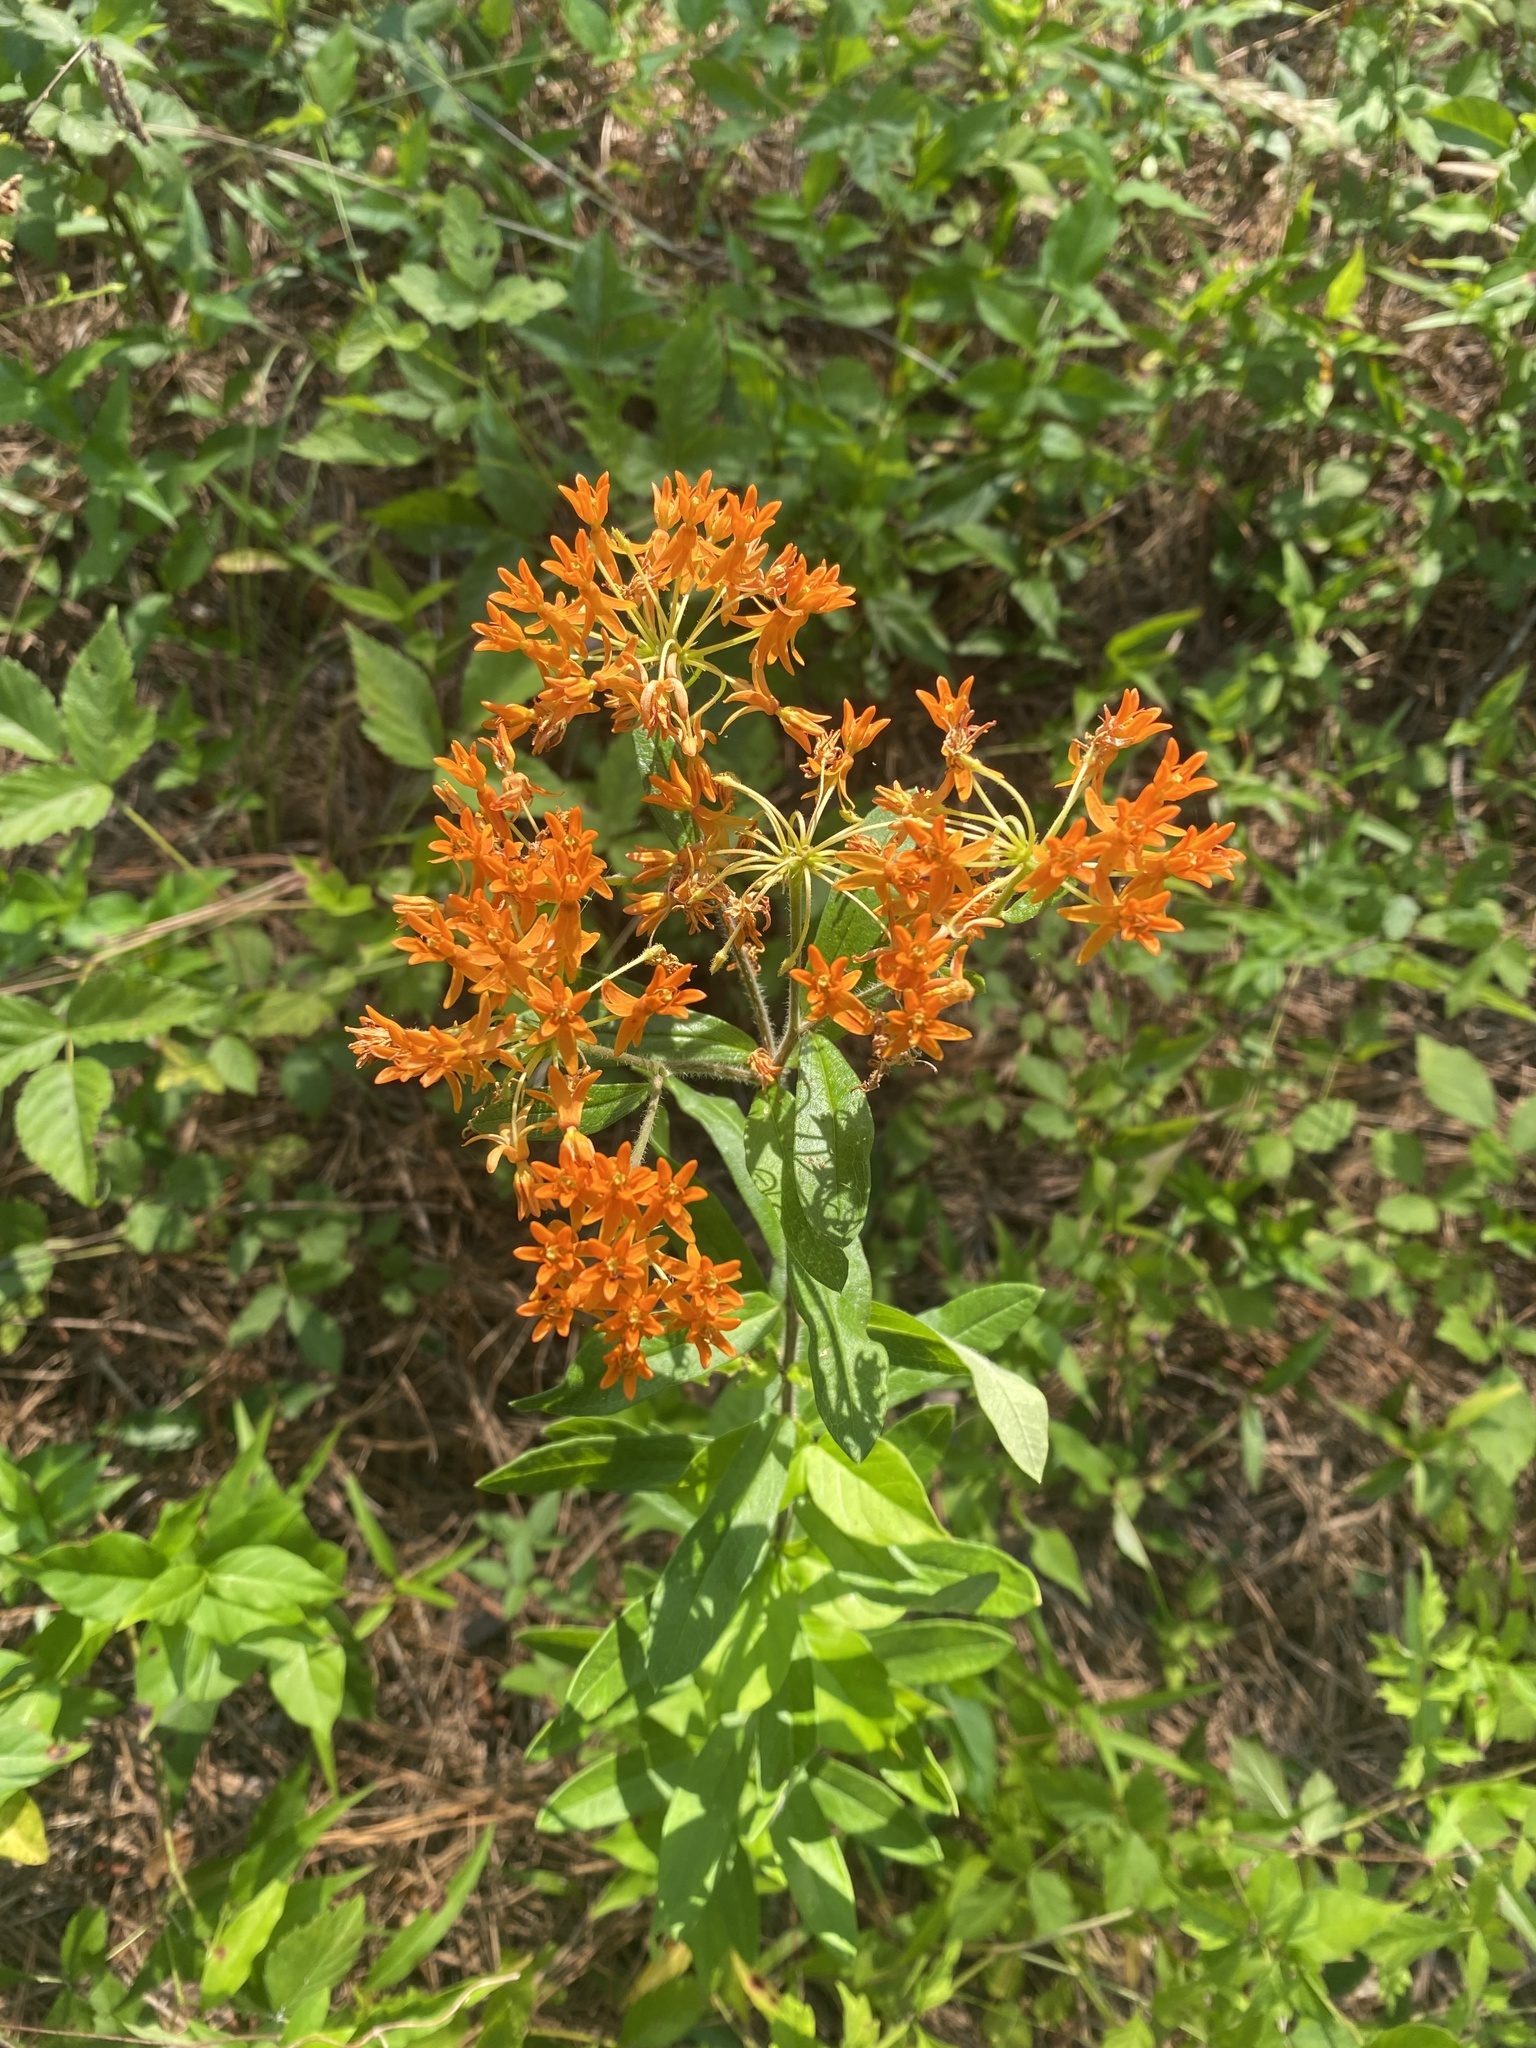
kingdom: Plantae
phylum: Tracheophyta
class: Magnoliopsida
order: Gentianales
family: Apocynaceae
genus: Asclepias
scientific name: Asclepias tuberosa
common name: Butterfly milkweed
